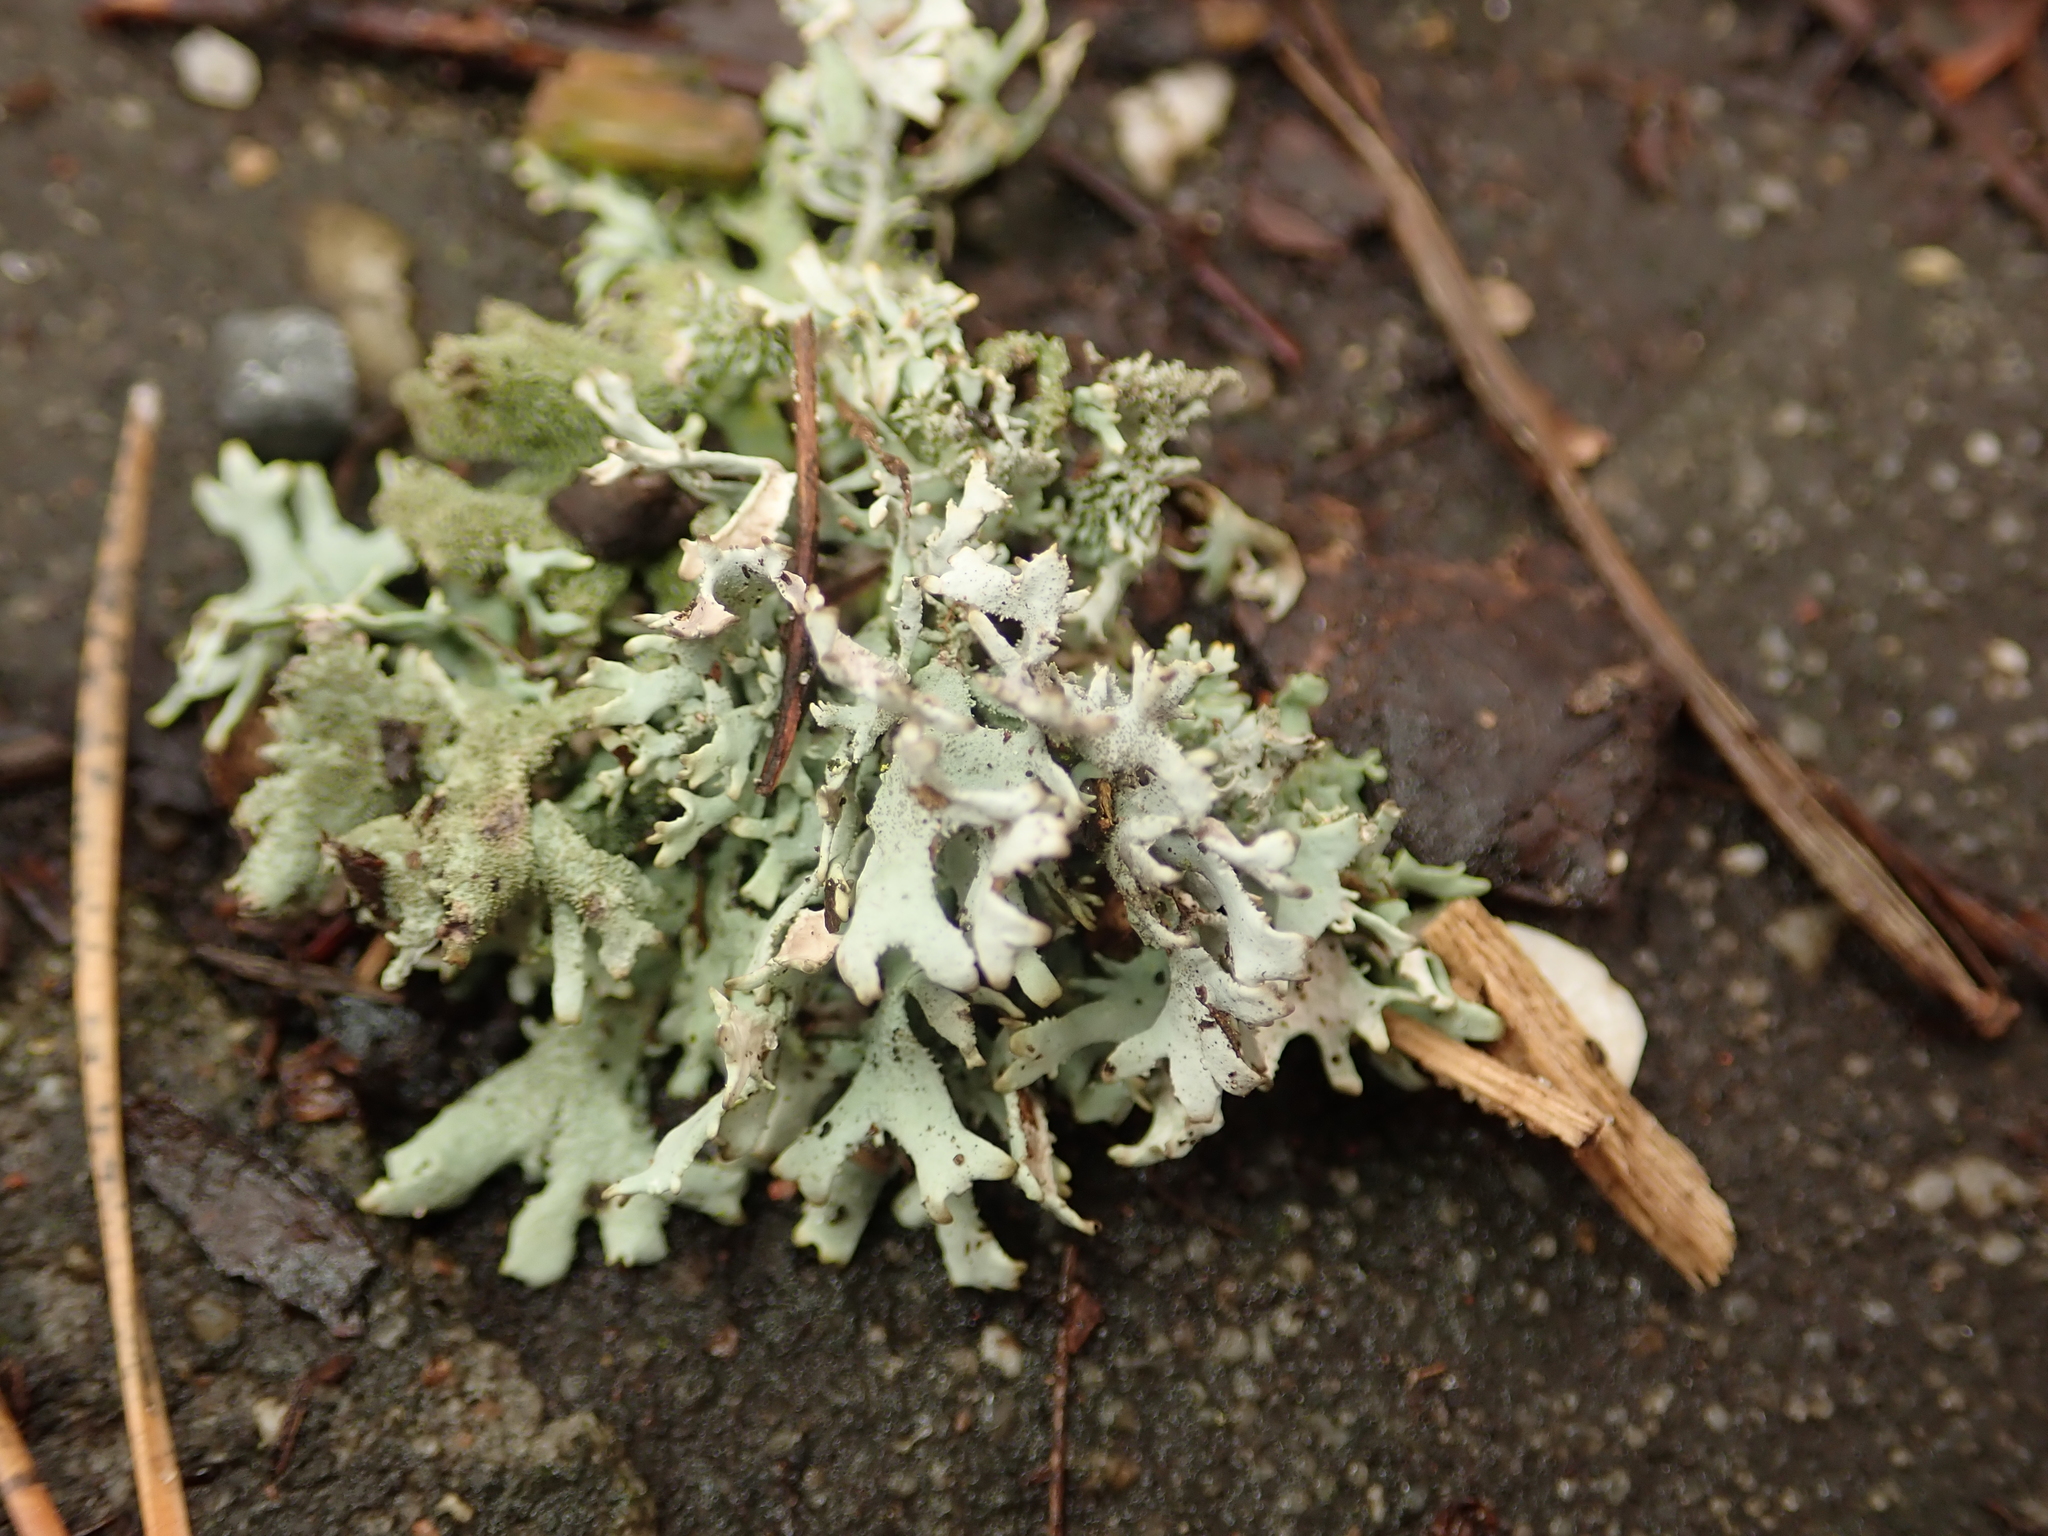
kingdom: Fungi
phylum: Ascomycota
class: Lecanoromycetes
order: Lecanorales
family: Parmeliaceae
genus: Pseudevernia
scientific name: Pseudevernia furfuracea
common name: Tree moss
